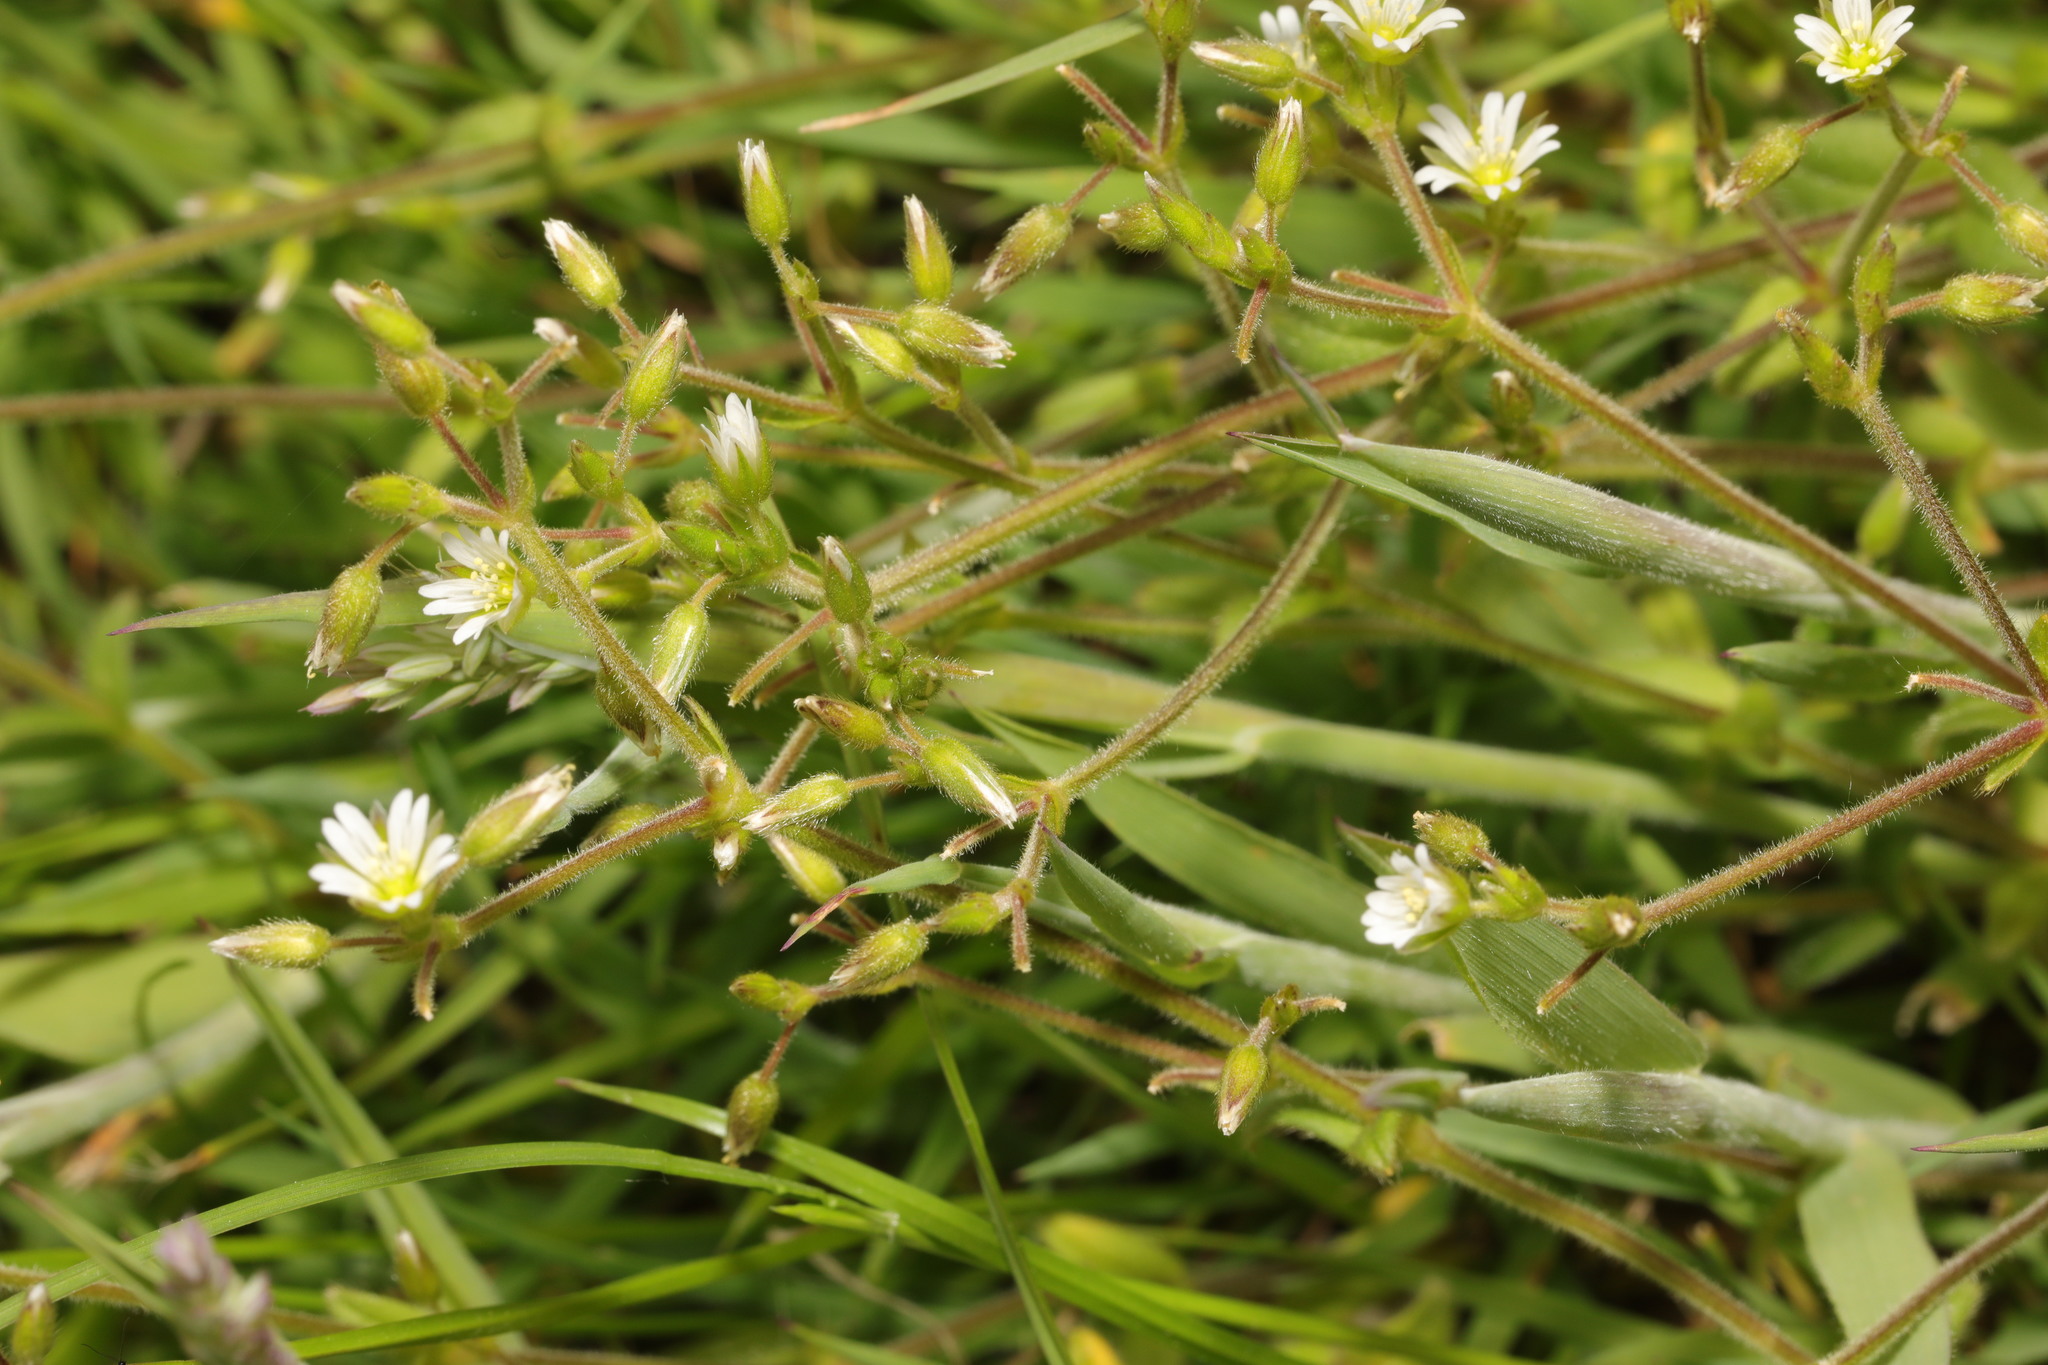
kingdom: Plantae
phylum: Tracheophyta
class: Magnoliopsida
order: Caryophyllales
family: Caryophyllaceae
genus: Cerastium
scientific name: Cerastium fontanum
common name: Common mouse-ear
